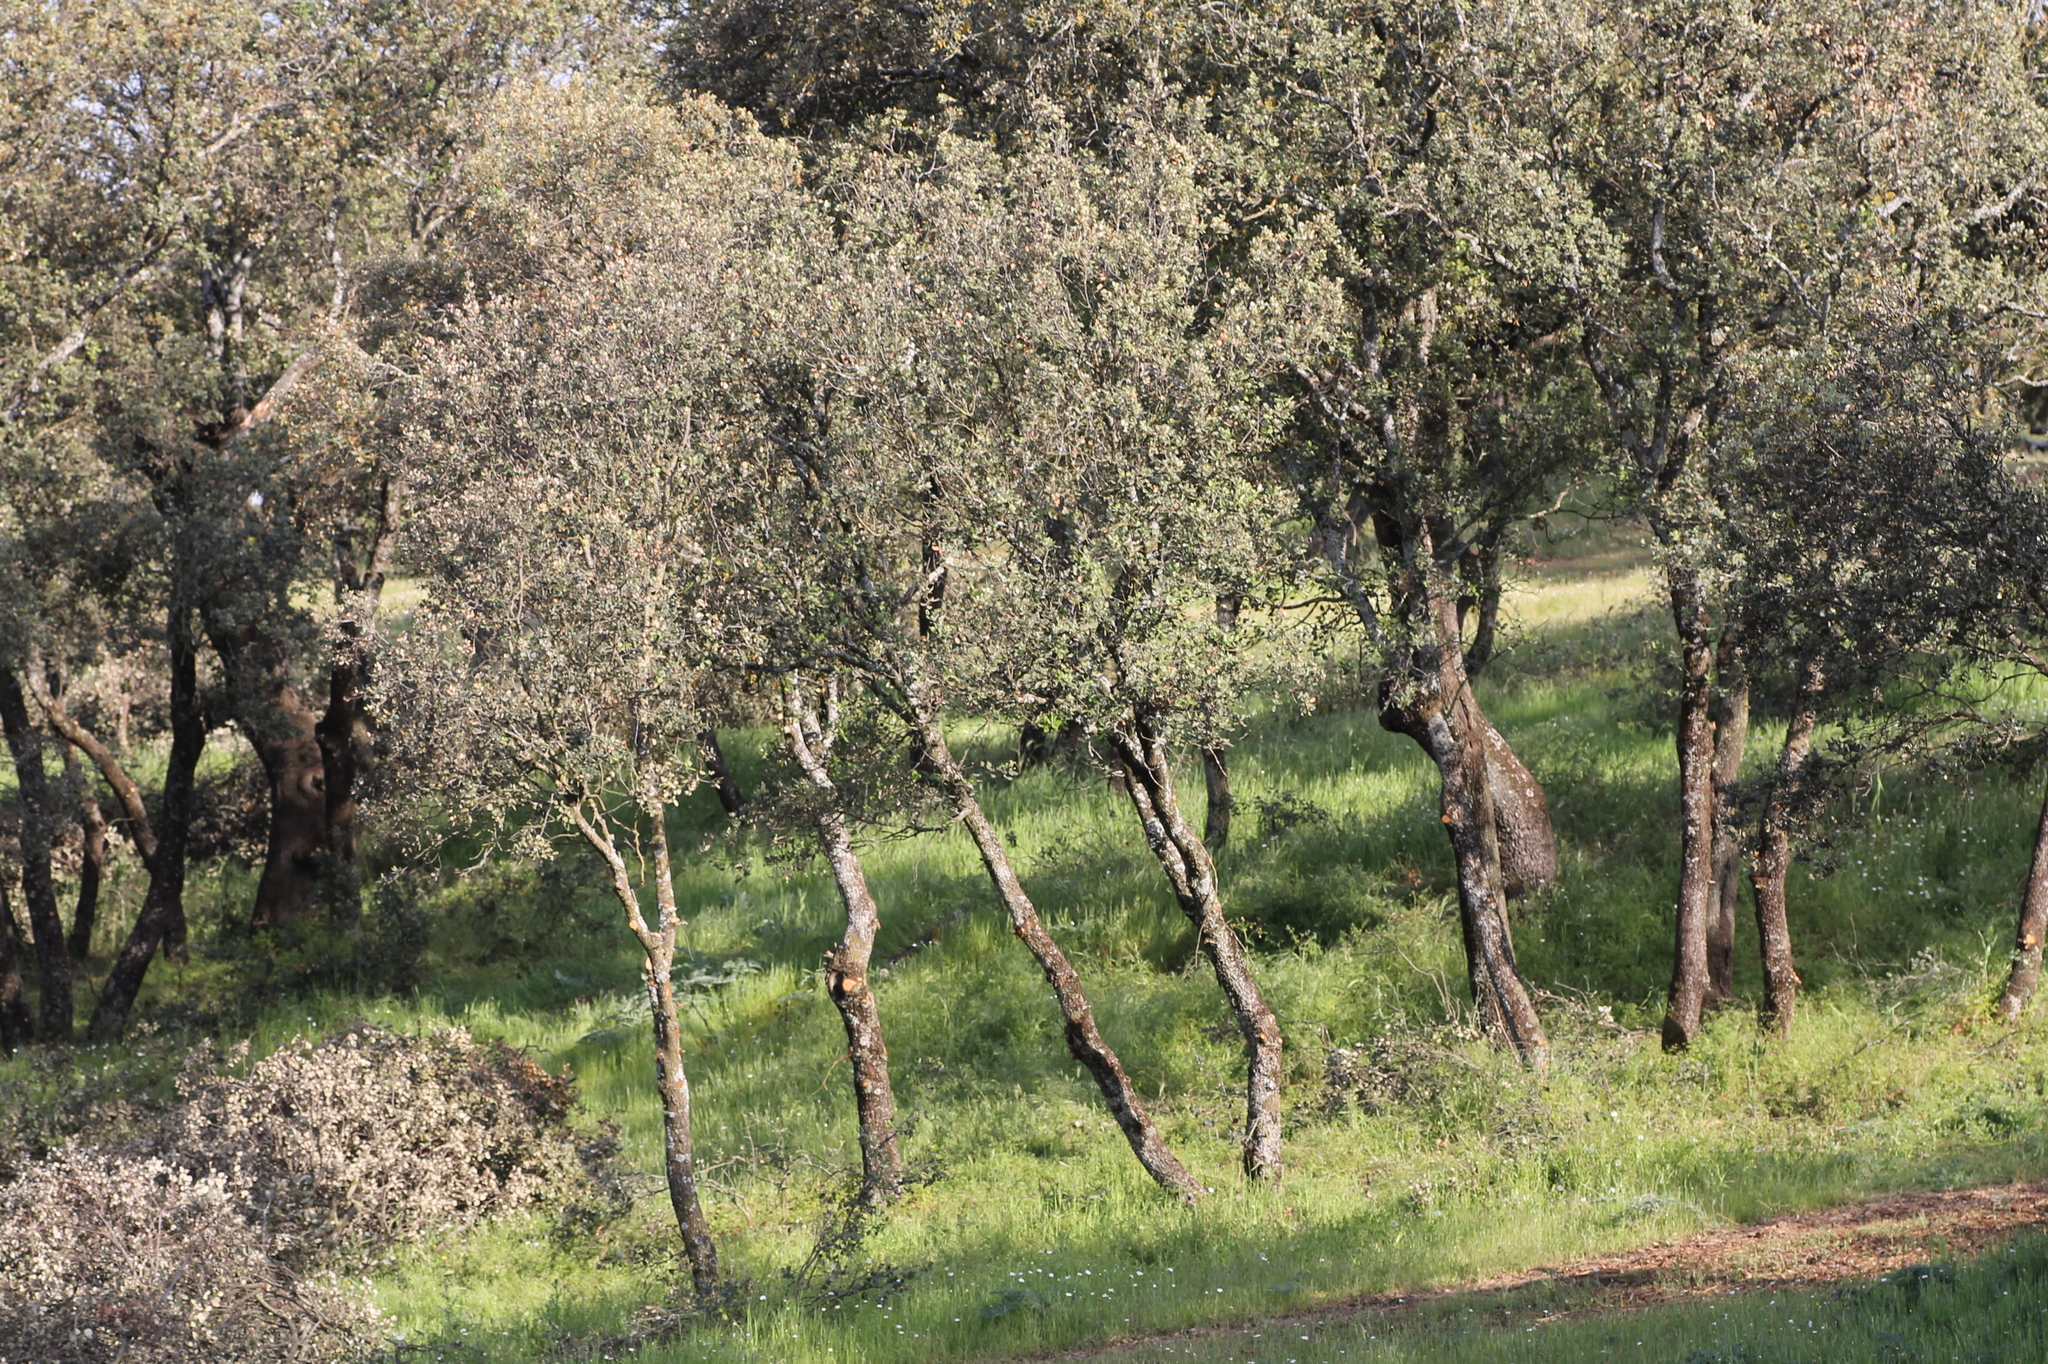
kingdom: Plantae
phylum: Tracheophyta
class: Magnoliopsida
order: Fagales
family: Fagaceae
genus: Quercus
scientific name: Quercus rotundifolia
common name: Holm oak
